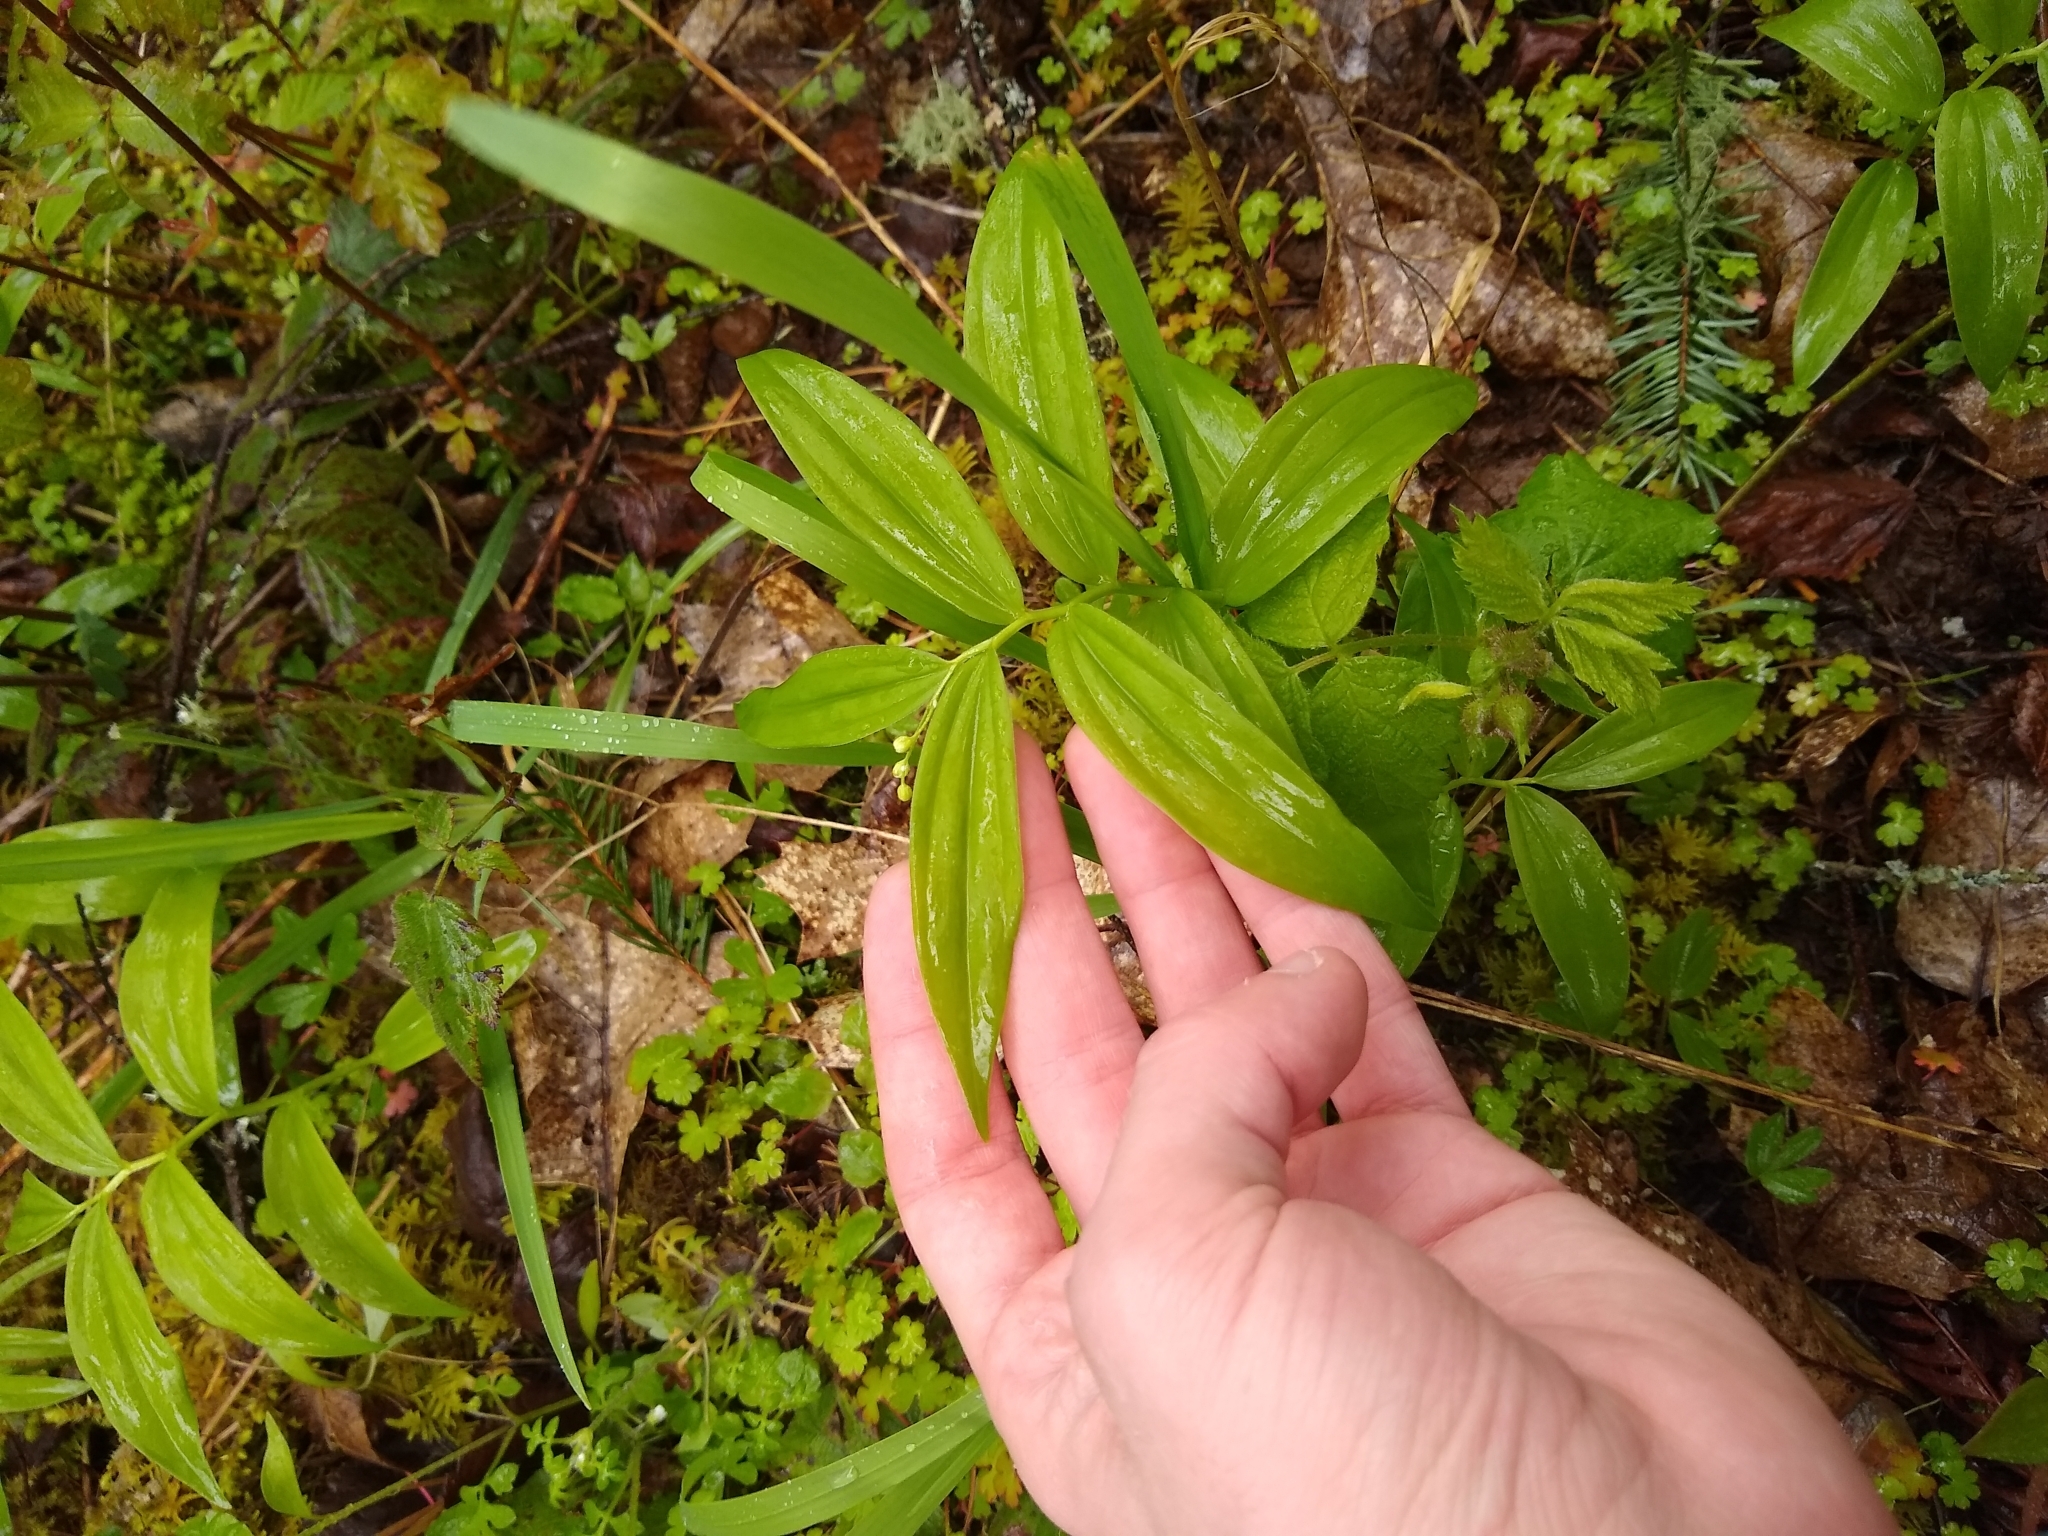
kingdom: Plantae
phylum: Tracheophyta
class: Liliopsida
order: Asparagales
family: Asparagaceae
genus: Maianthemum
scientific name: Maianthemum stellatum
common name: Little false solomon's seal
